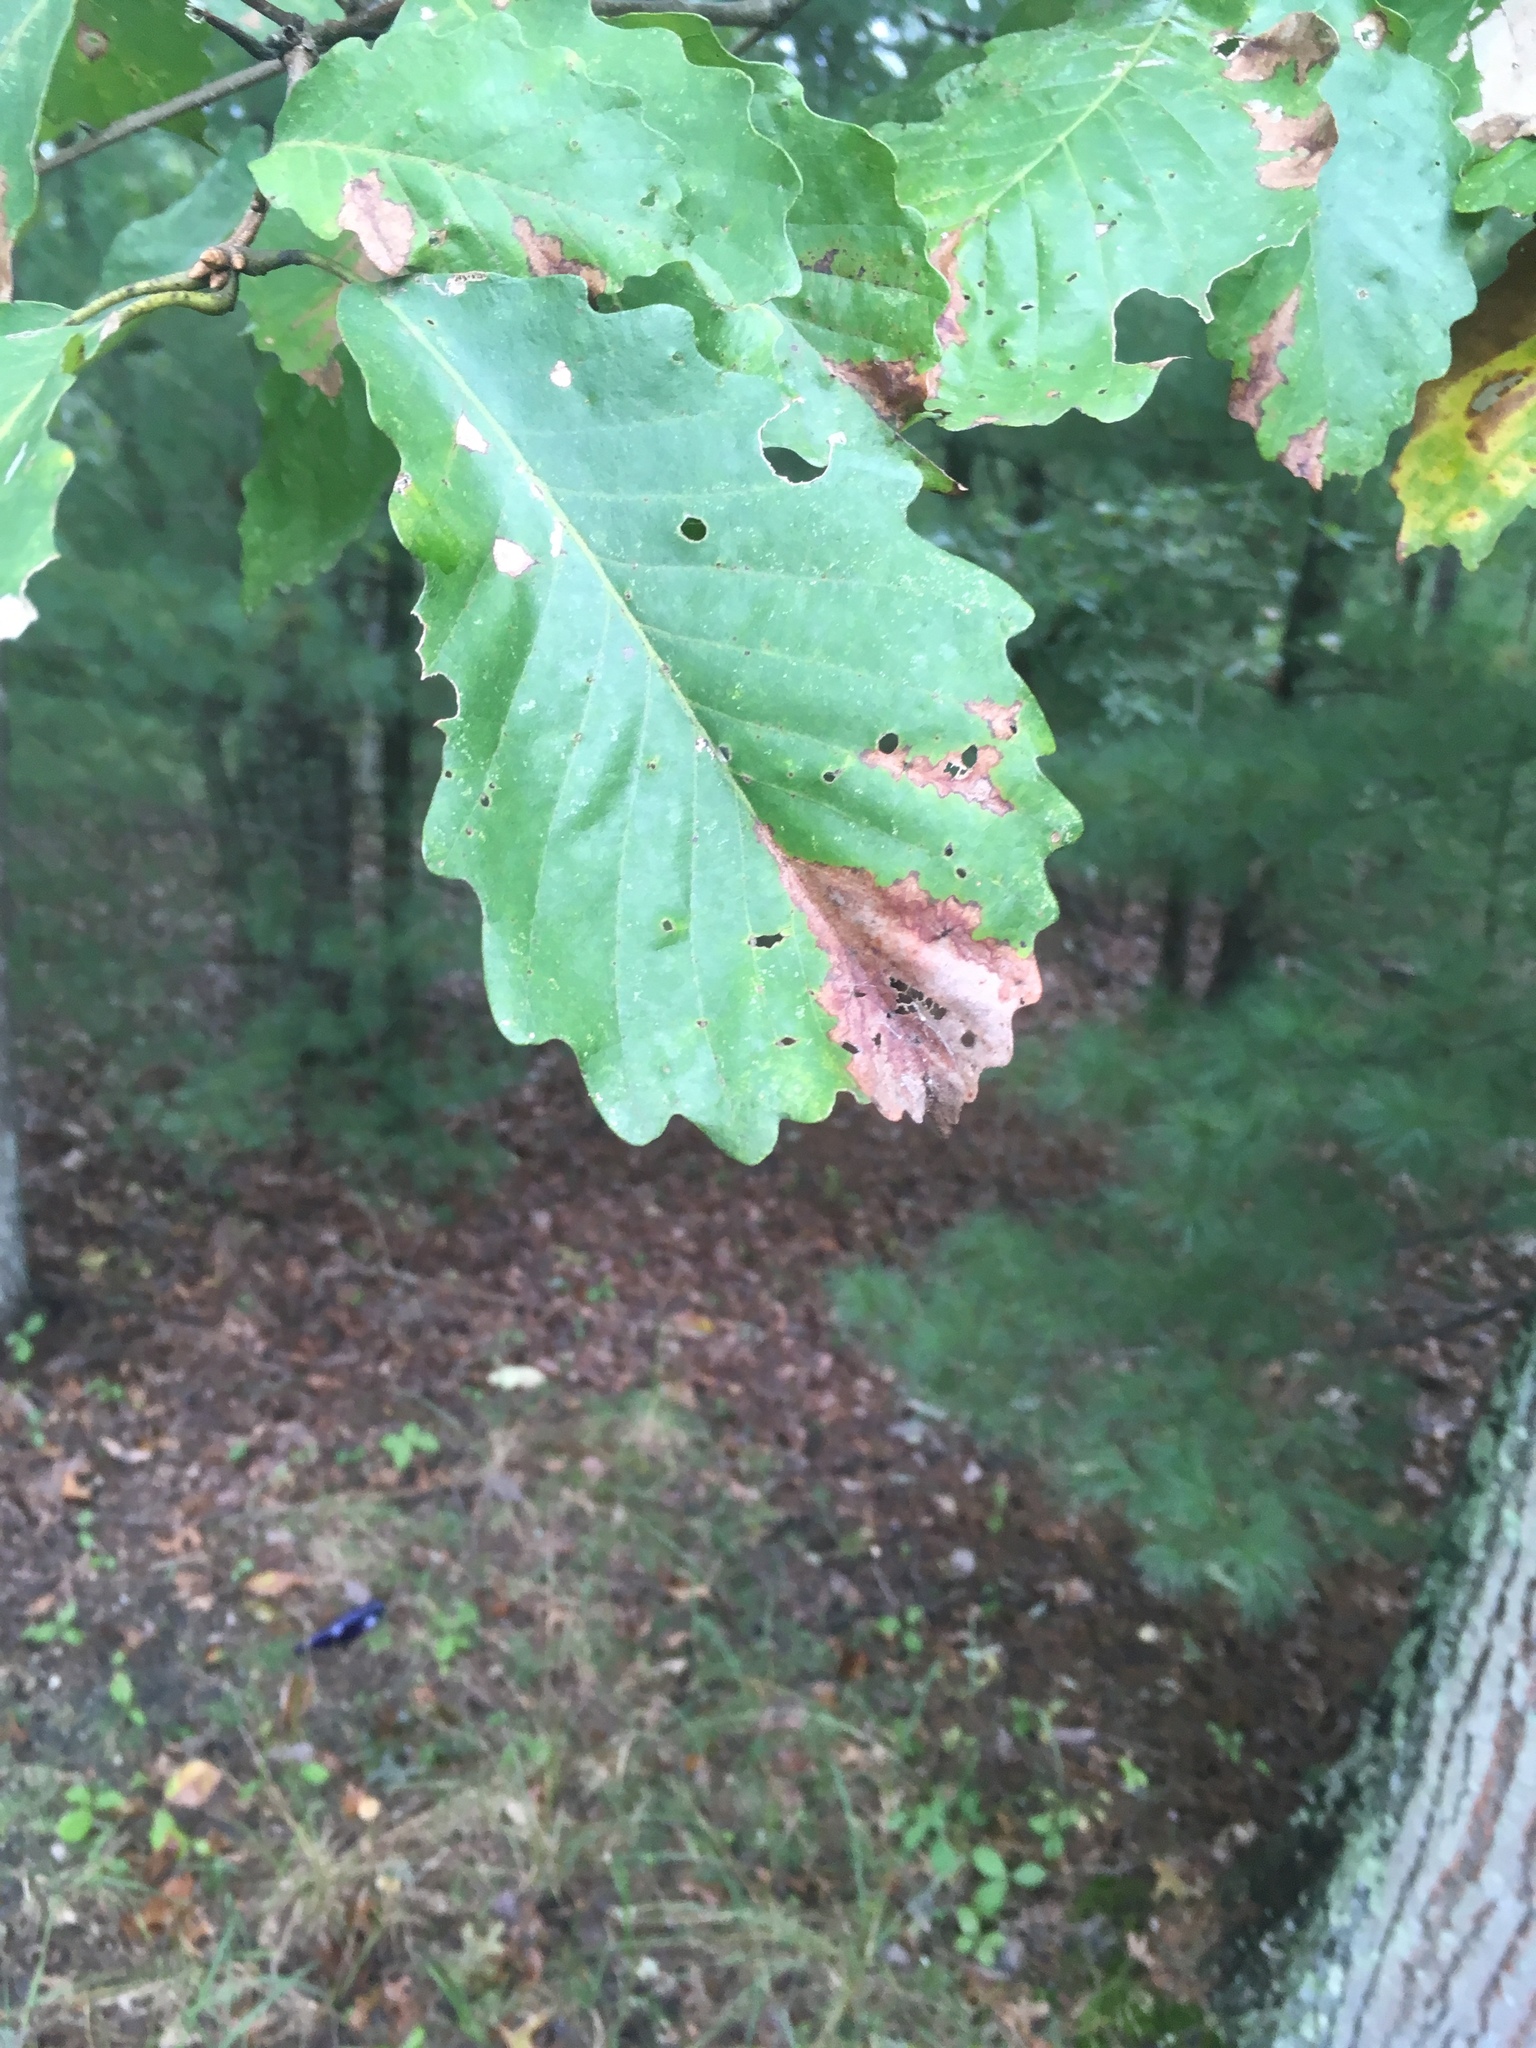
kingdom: Plantae
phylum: Tracheophyta
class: Magnoliopsida
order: Fagales
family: Fagaceae
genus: Quercus
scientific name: Quercus montana
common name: Chestnut oak
